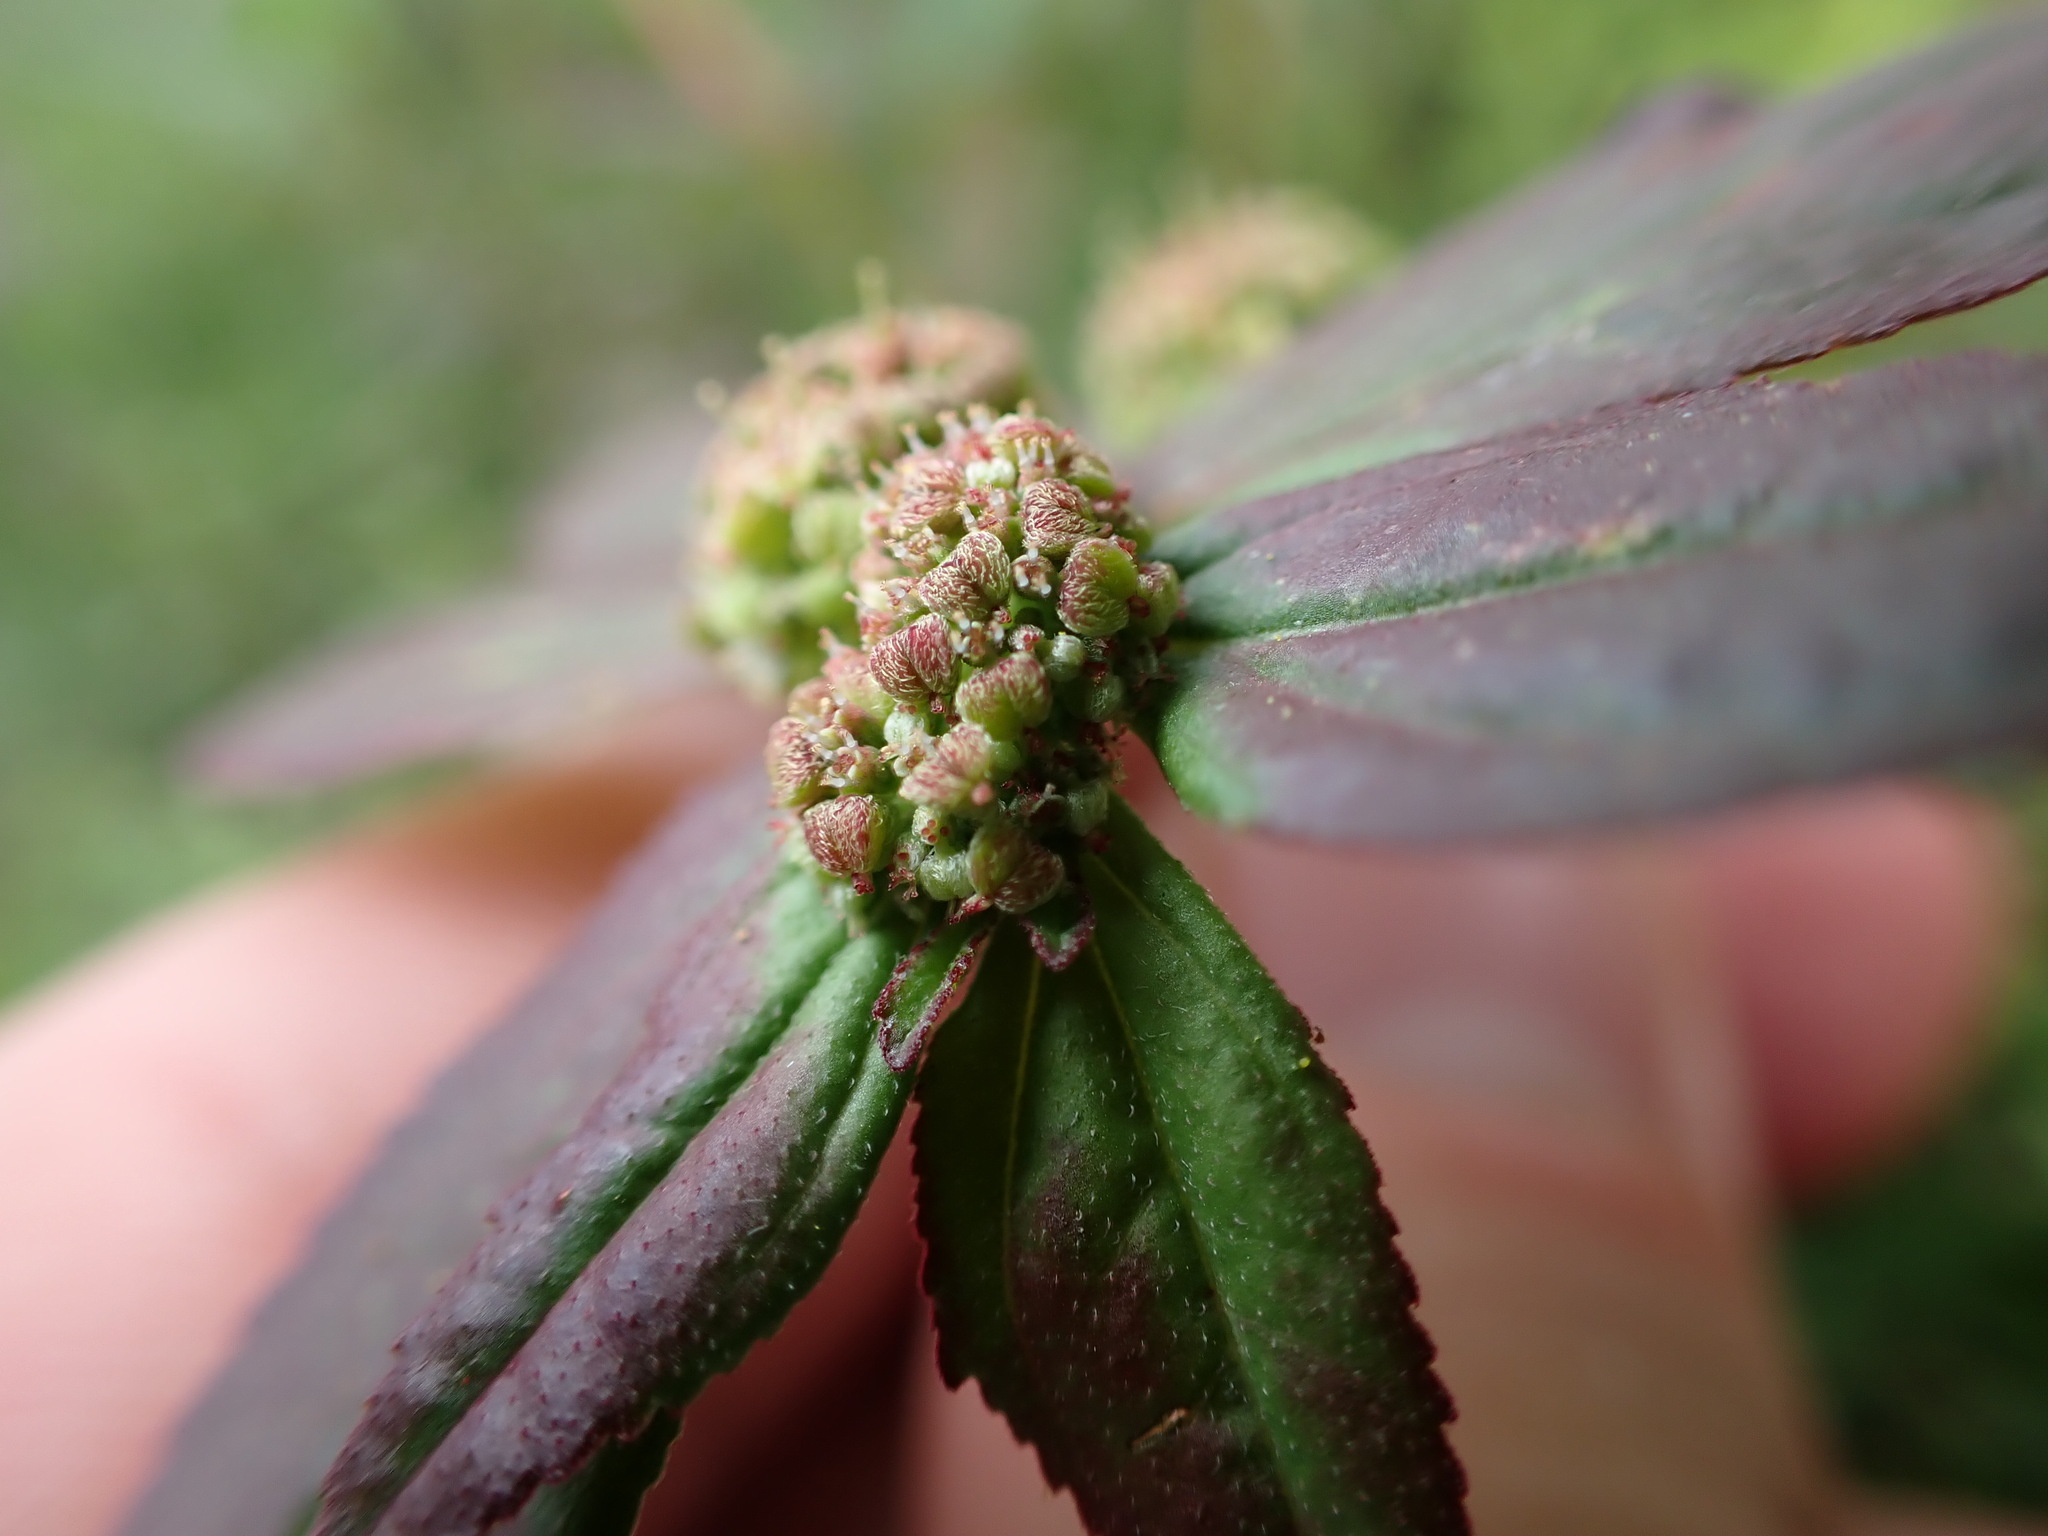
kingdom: Plantae
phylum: Tracheophyta
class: Magnoliopsida
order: Malpighiales
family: Euphorbiaceae
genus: Euphorbia
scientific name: Euphorbia hirta
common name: Pillpod sandmat
